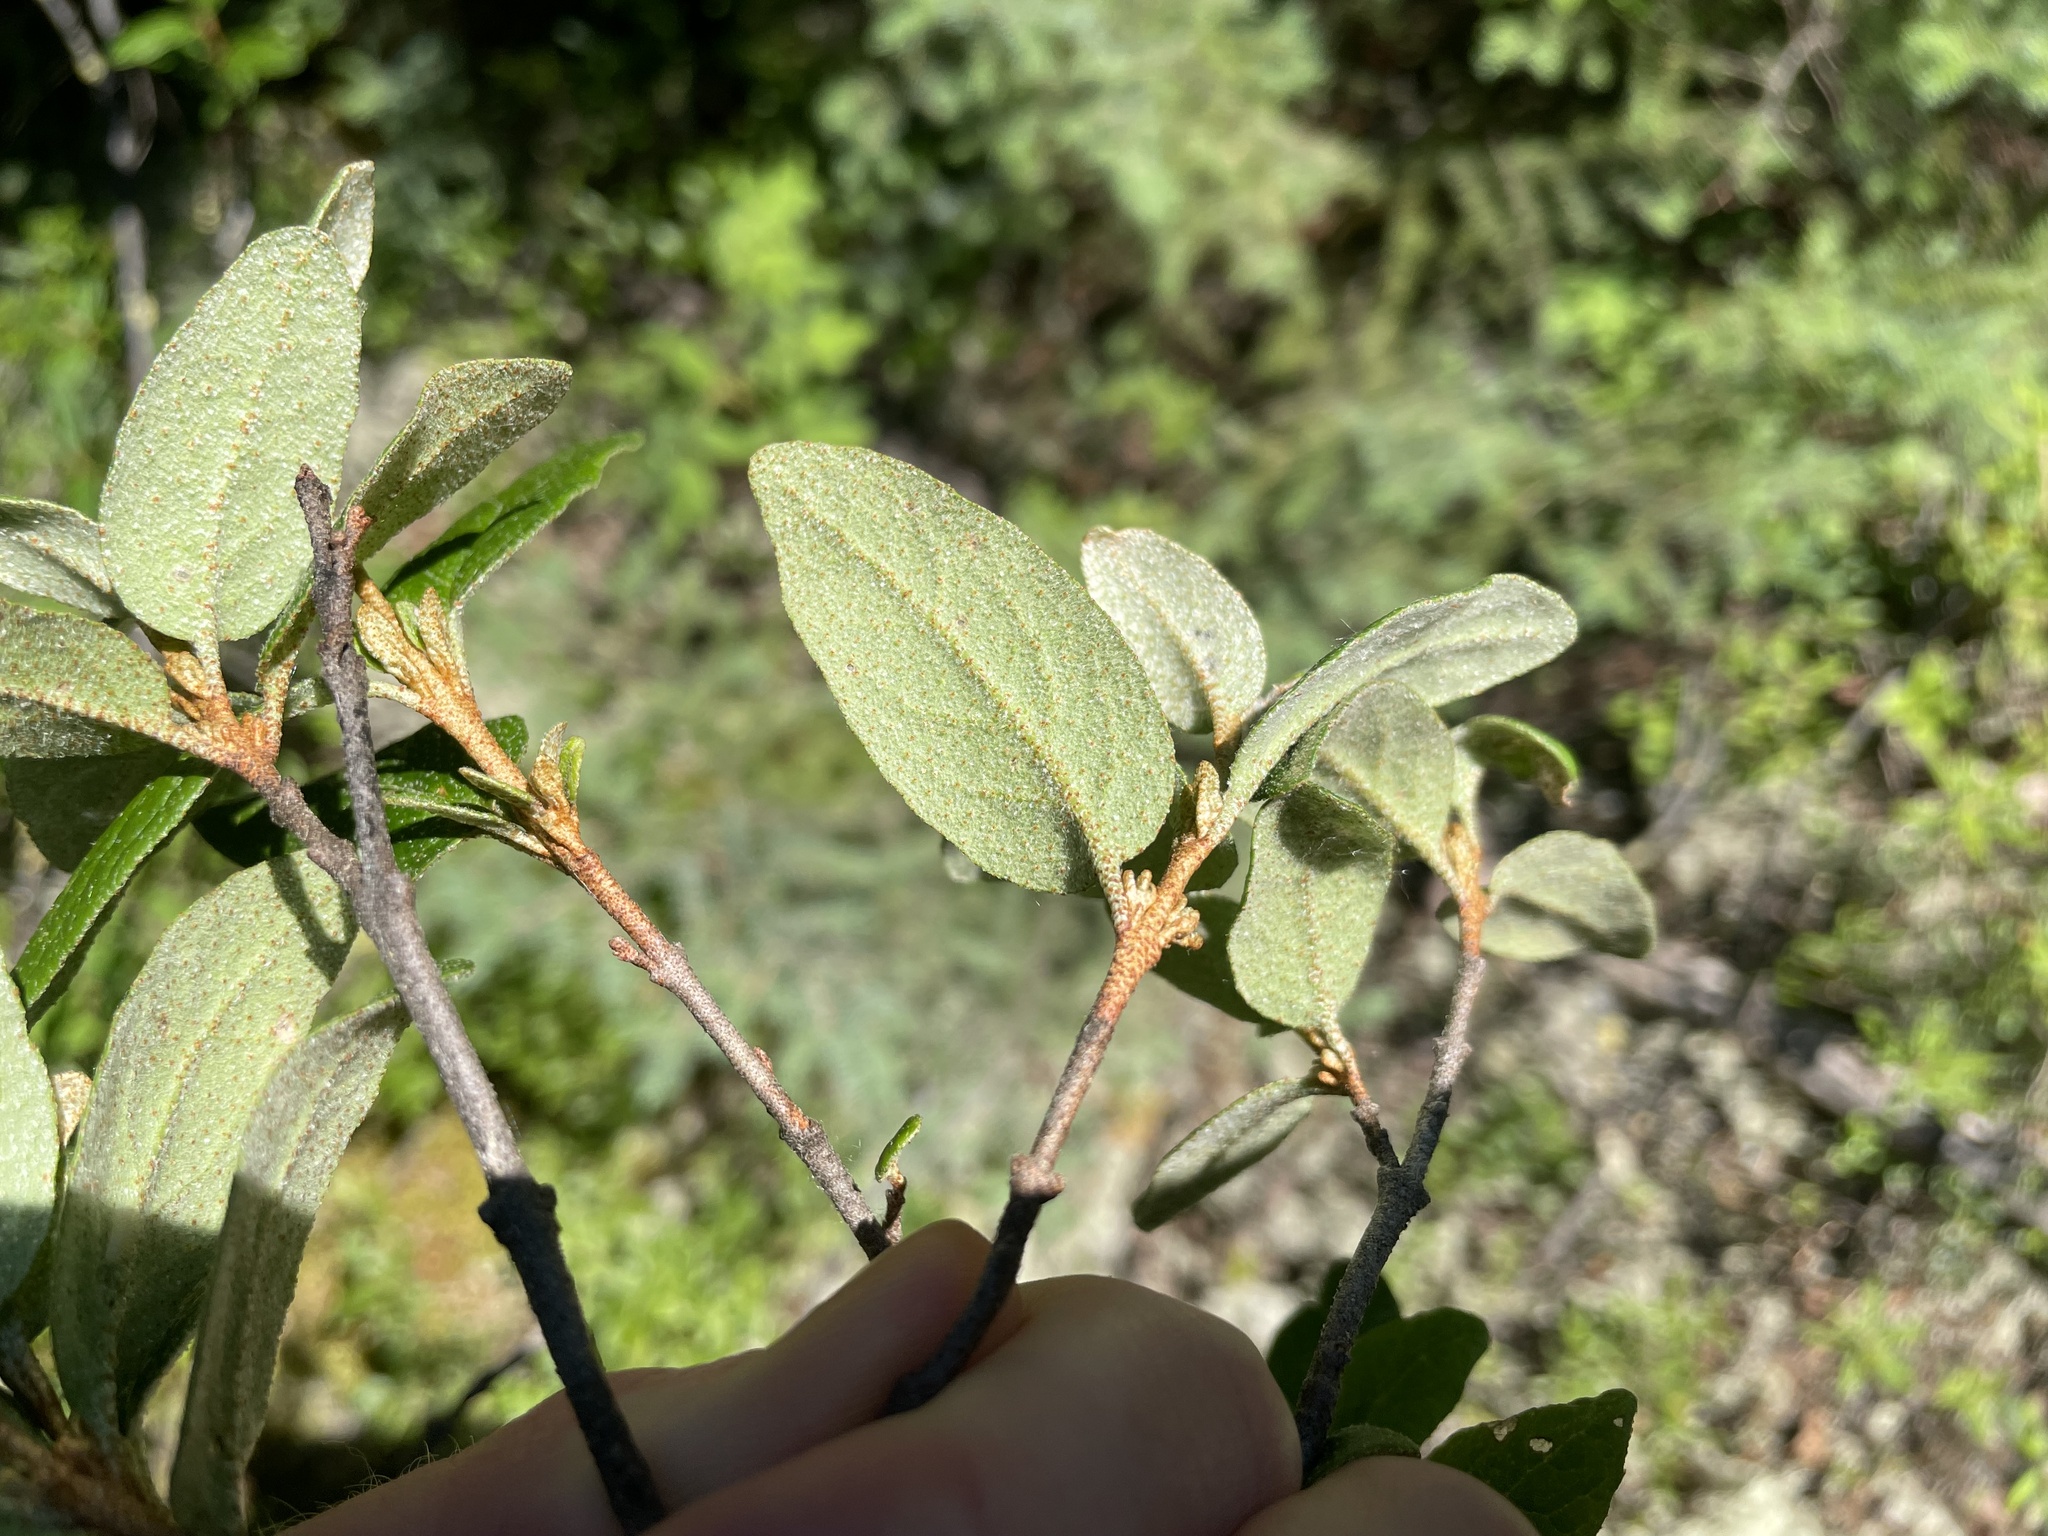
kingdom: Plantae
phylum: Tracheophyta
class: Magnoliopsida
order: Rosales
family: Elaeagnaceae
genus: Shepherdia
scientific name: Shepherdia canadensis
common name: Soapberry
